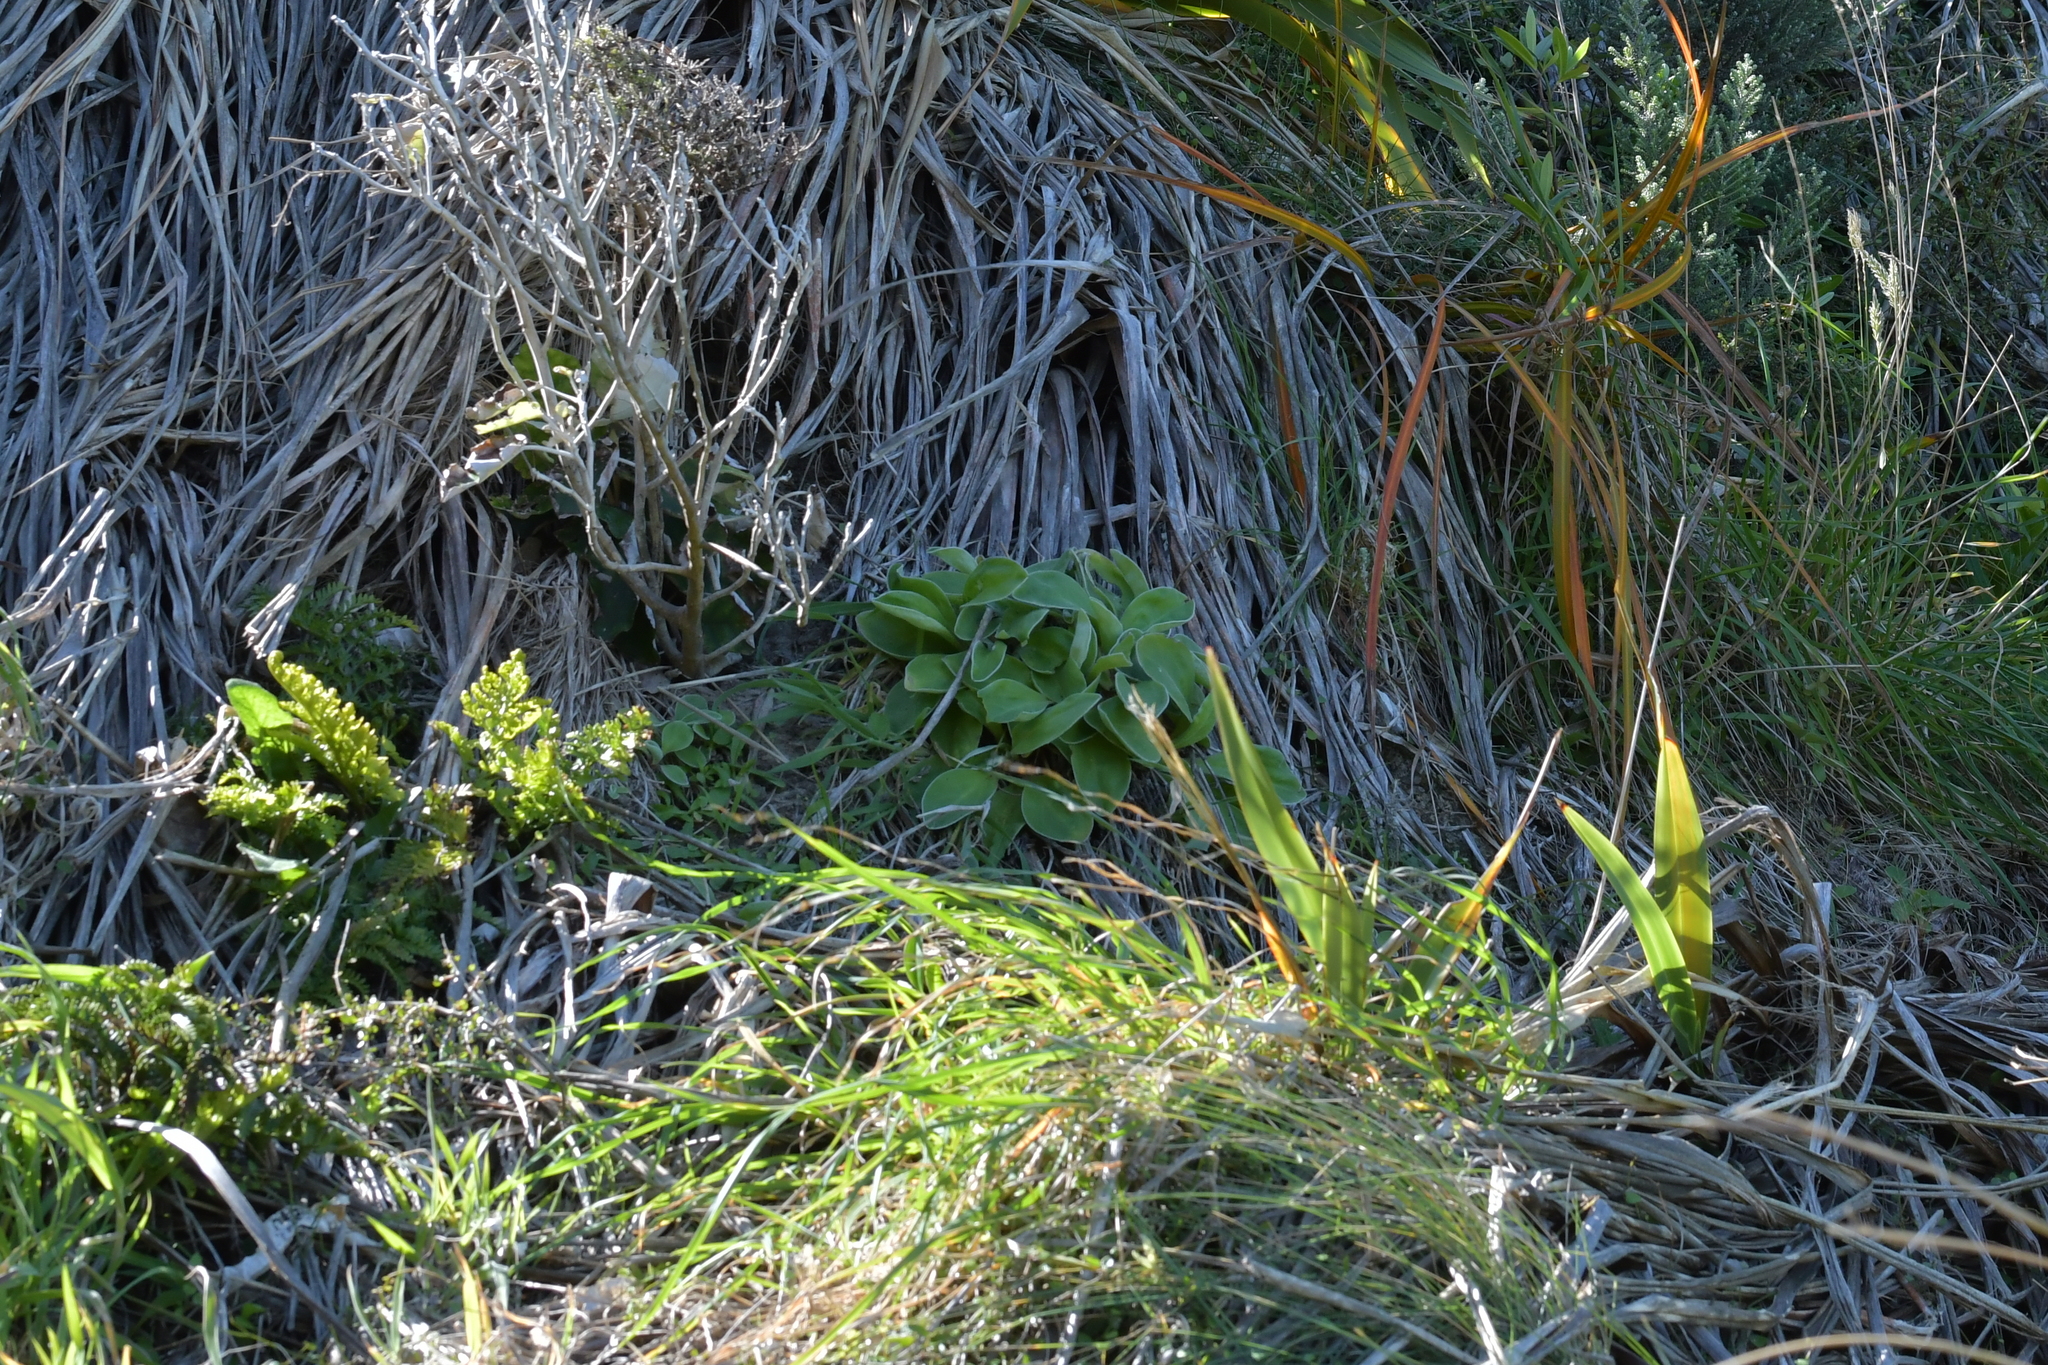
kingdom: Plantae
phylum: Tracheophyta
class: Magnoliopsida
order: Asterales
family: Asteraceae
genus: Craspedia
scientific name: Craspedia uniflora
